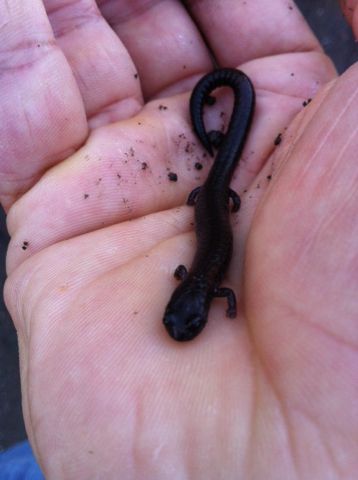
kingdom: Animalia
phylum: Chordata
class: Amphibia
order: Caudata
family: Plethodontidae
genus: Batrachoseps
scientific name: Batrachoseps attenuatus
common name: California slender salamander
